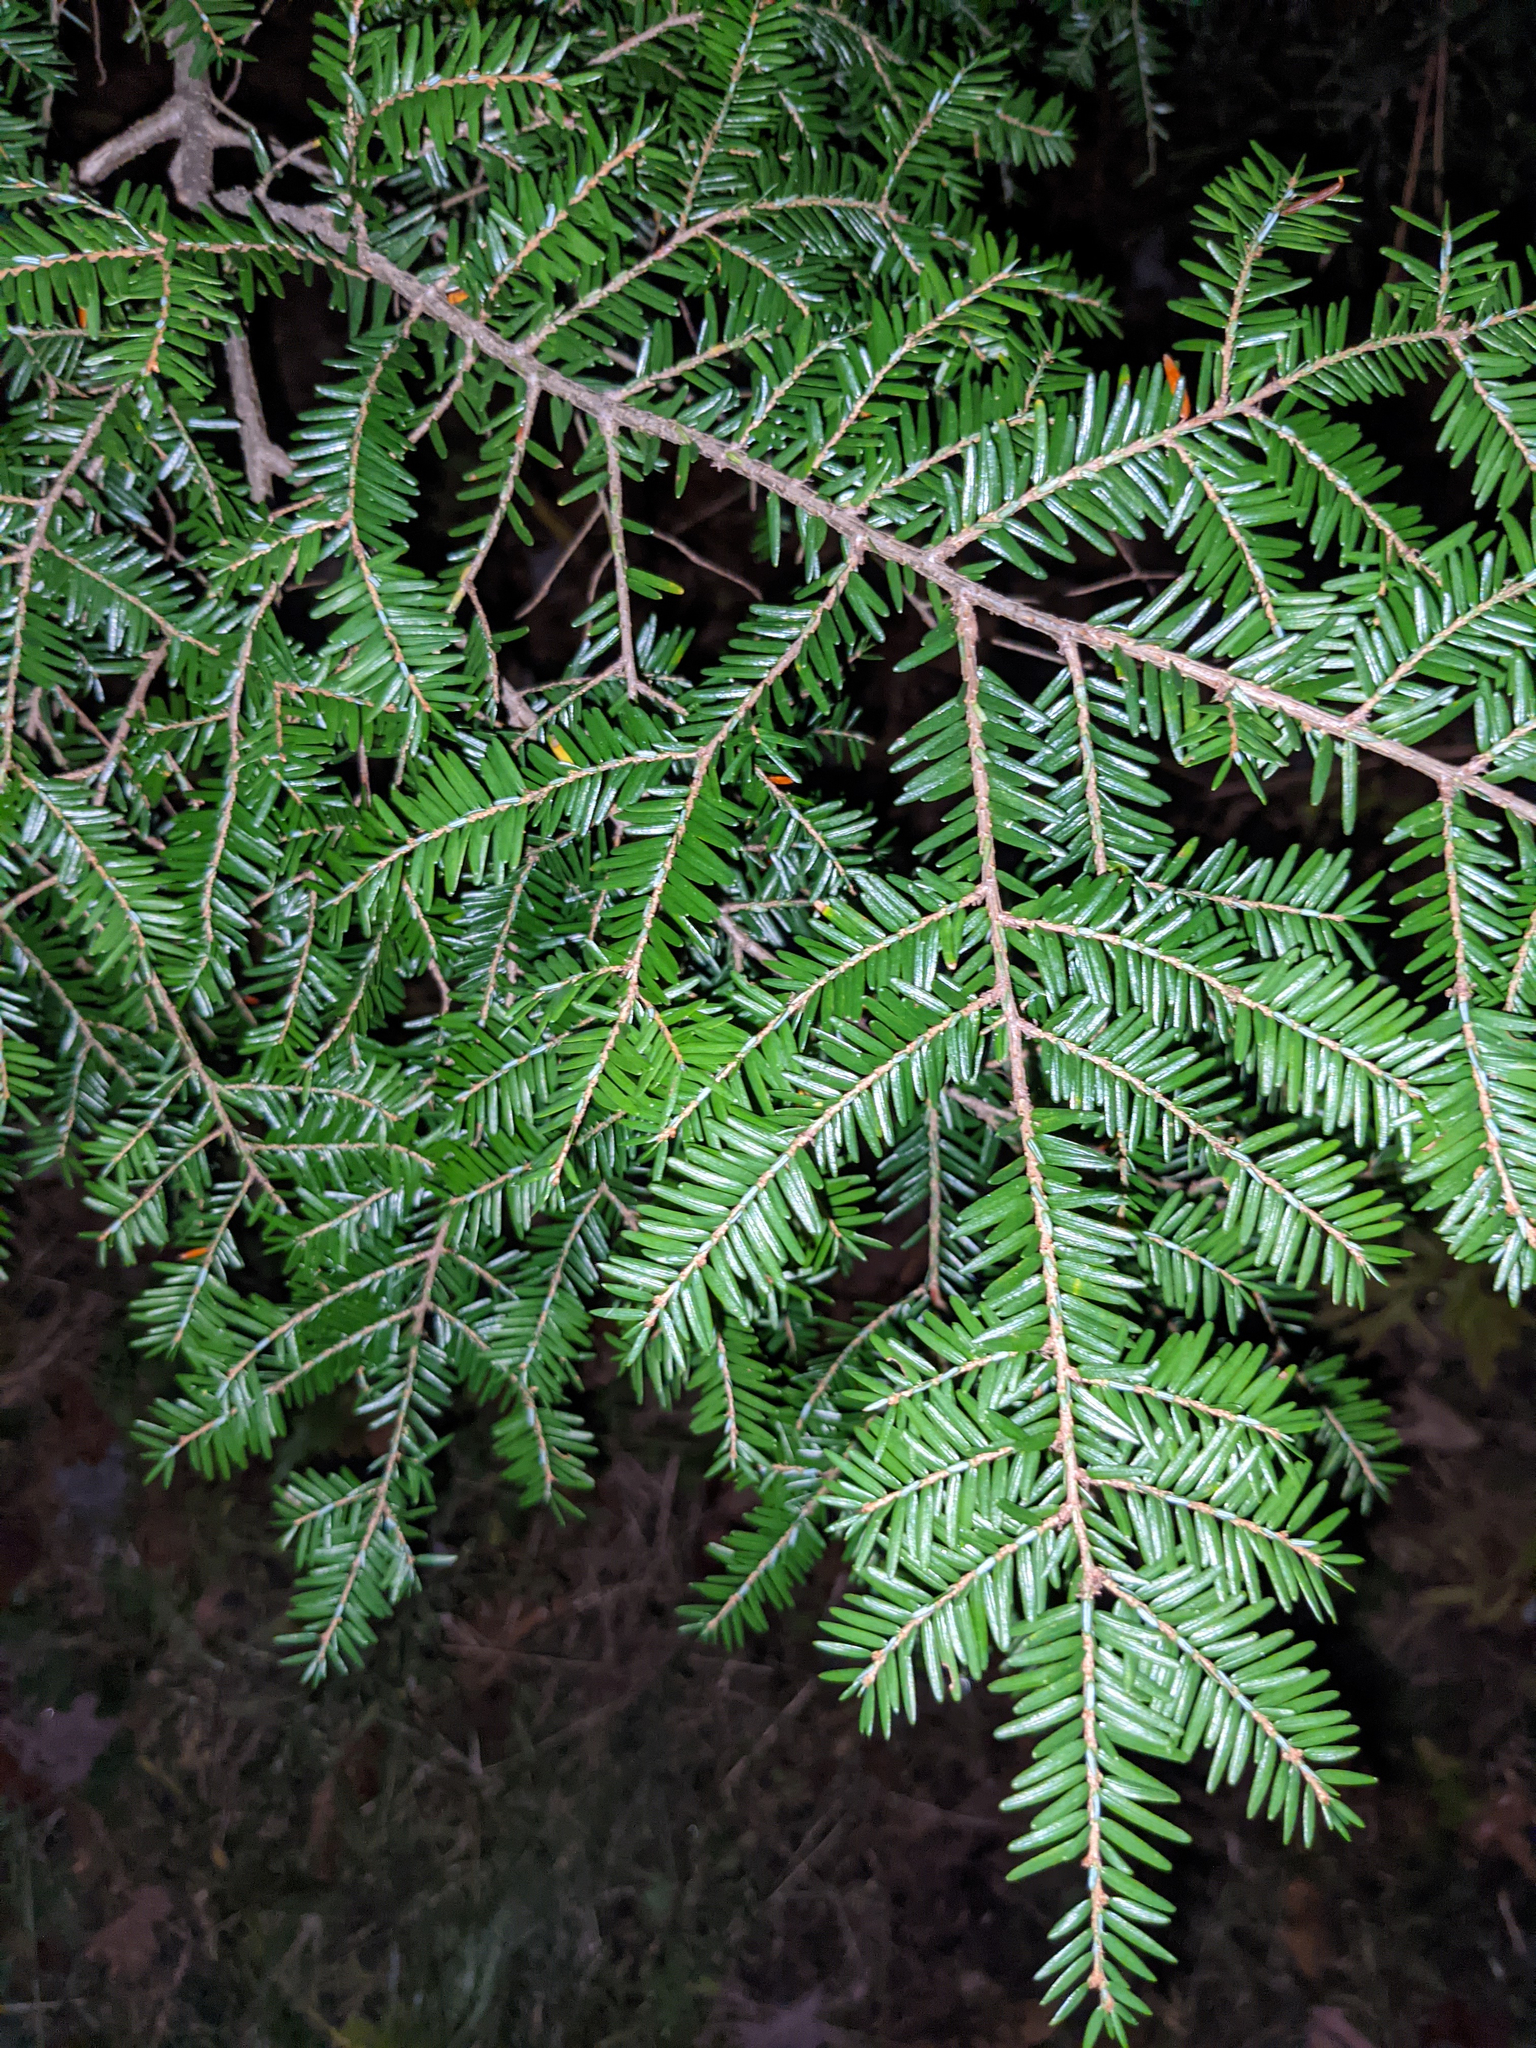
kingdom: Plantae
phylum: Tracheophyta
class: Pinopsida
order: Pinales
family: Pinaceae
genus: Tsuga
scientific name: Tsuga canadensis
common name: Eastern hemlock
